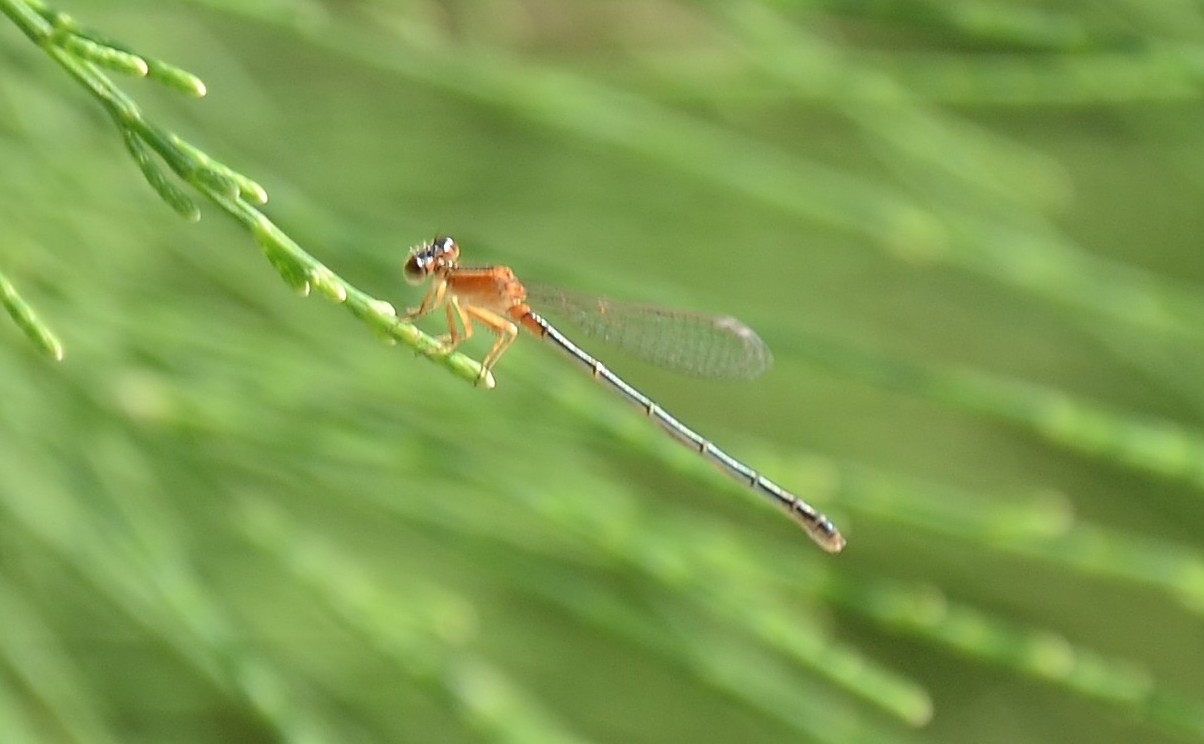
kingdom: Animalia
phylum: Arthropoda
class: Insecta
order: Odonata
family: Coenagrionidae
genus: Ischnura
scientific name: Ischnura senegalensis
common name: Tropical bluetail
